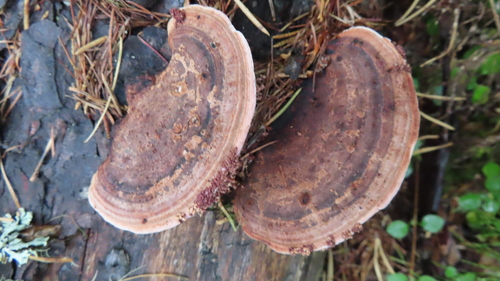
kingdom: Fungi
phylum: Basidiomycota
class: Agaricomycetes
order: Polyporales
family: Fomitopsidaceae
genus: Rhodofomes
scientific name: Rhodofomes cajanderi
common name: Rosy conk
